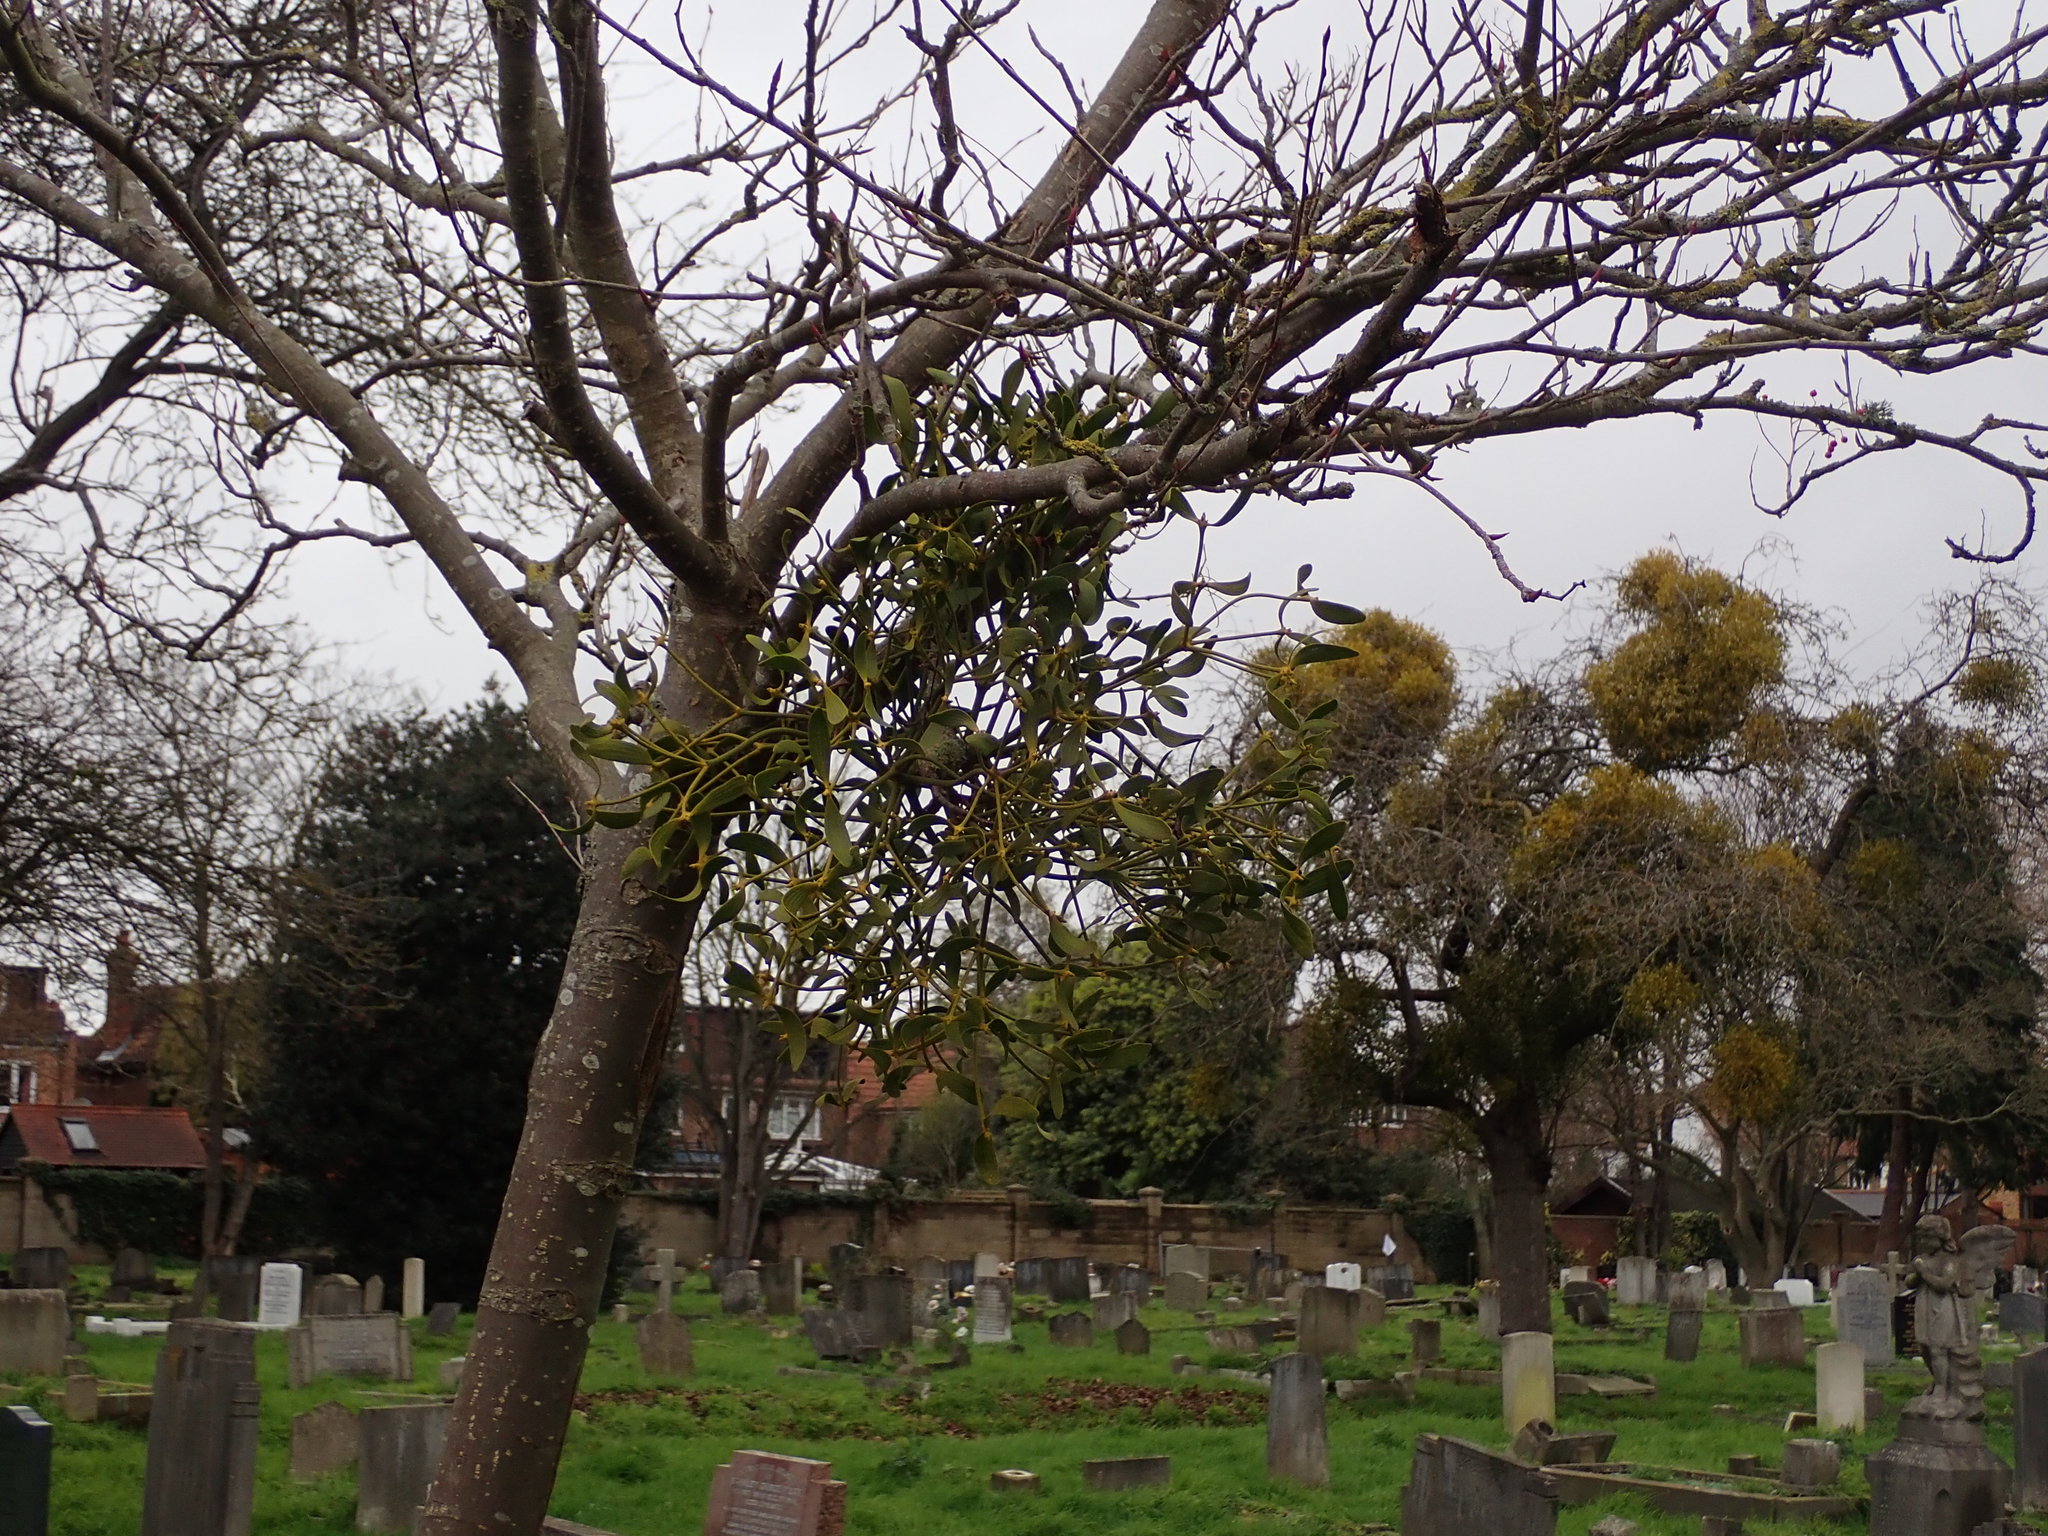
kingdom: Plantae
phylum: Tracheophyta
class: Magnoliopsida
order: Santalales
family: Viscaceae
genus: Viscum
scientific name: Viscum album
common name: Mistletoe
